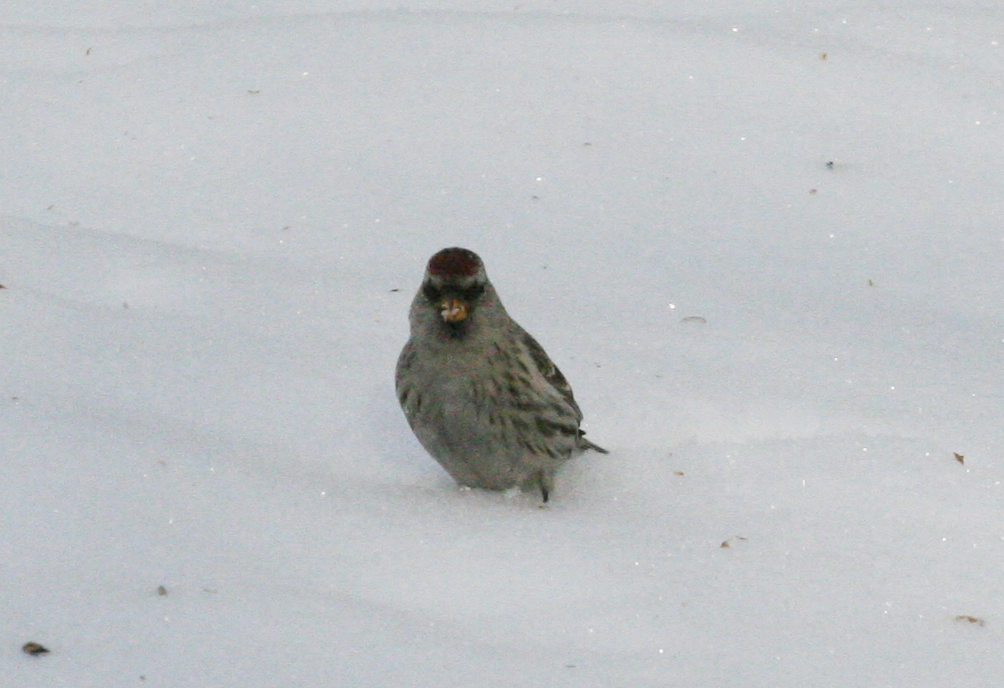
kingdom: Animalia
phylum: Chordata
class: Aves
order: Passeriformes
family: Fringillidae
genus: Acanthis
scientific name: Acanthis flammea
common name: Common redpoll
